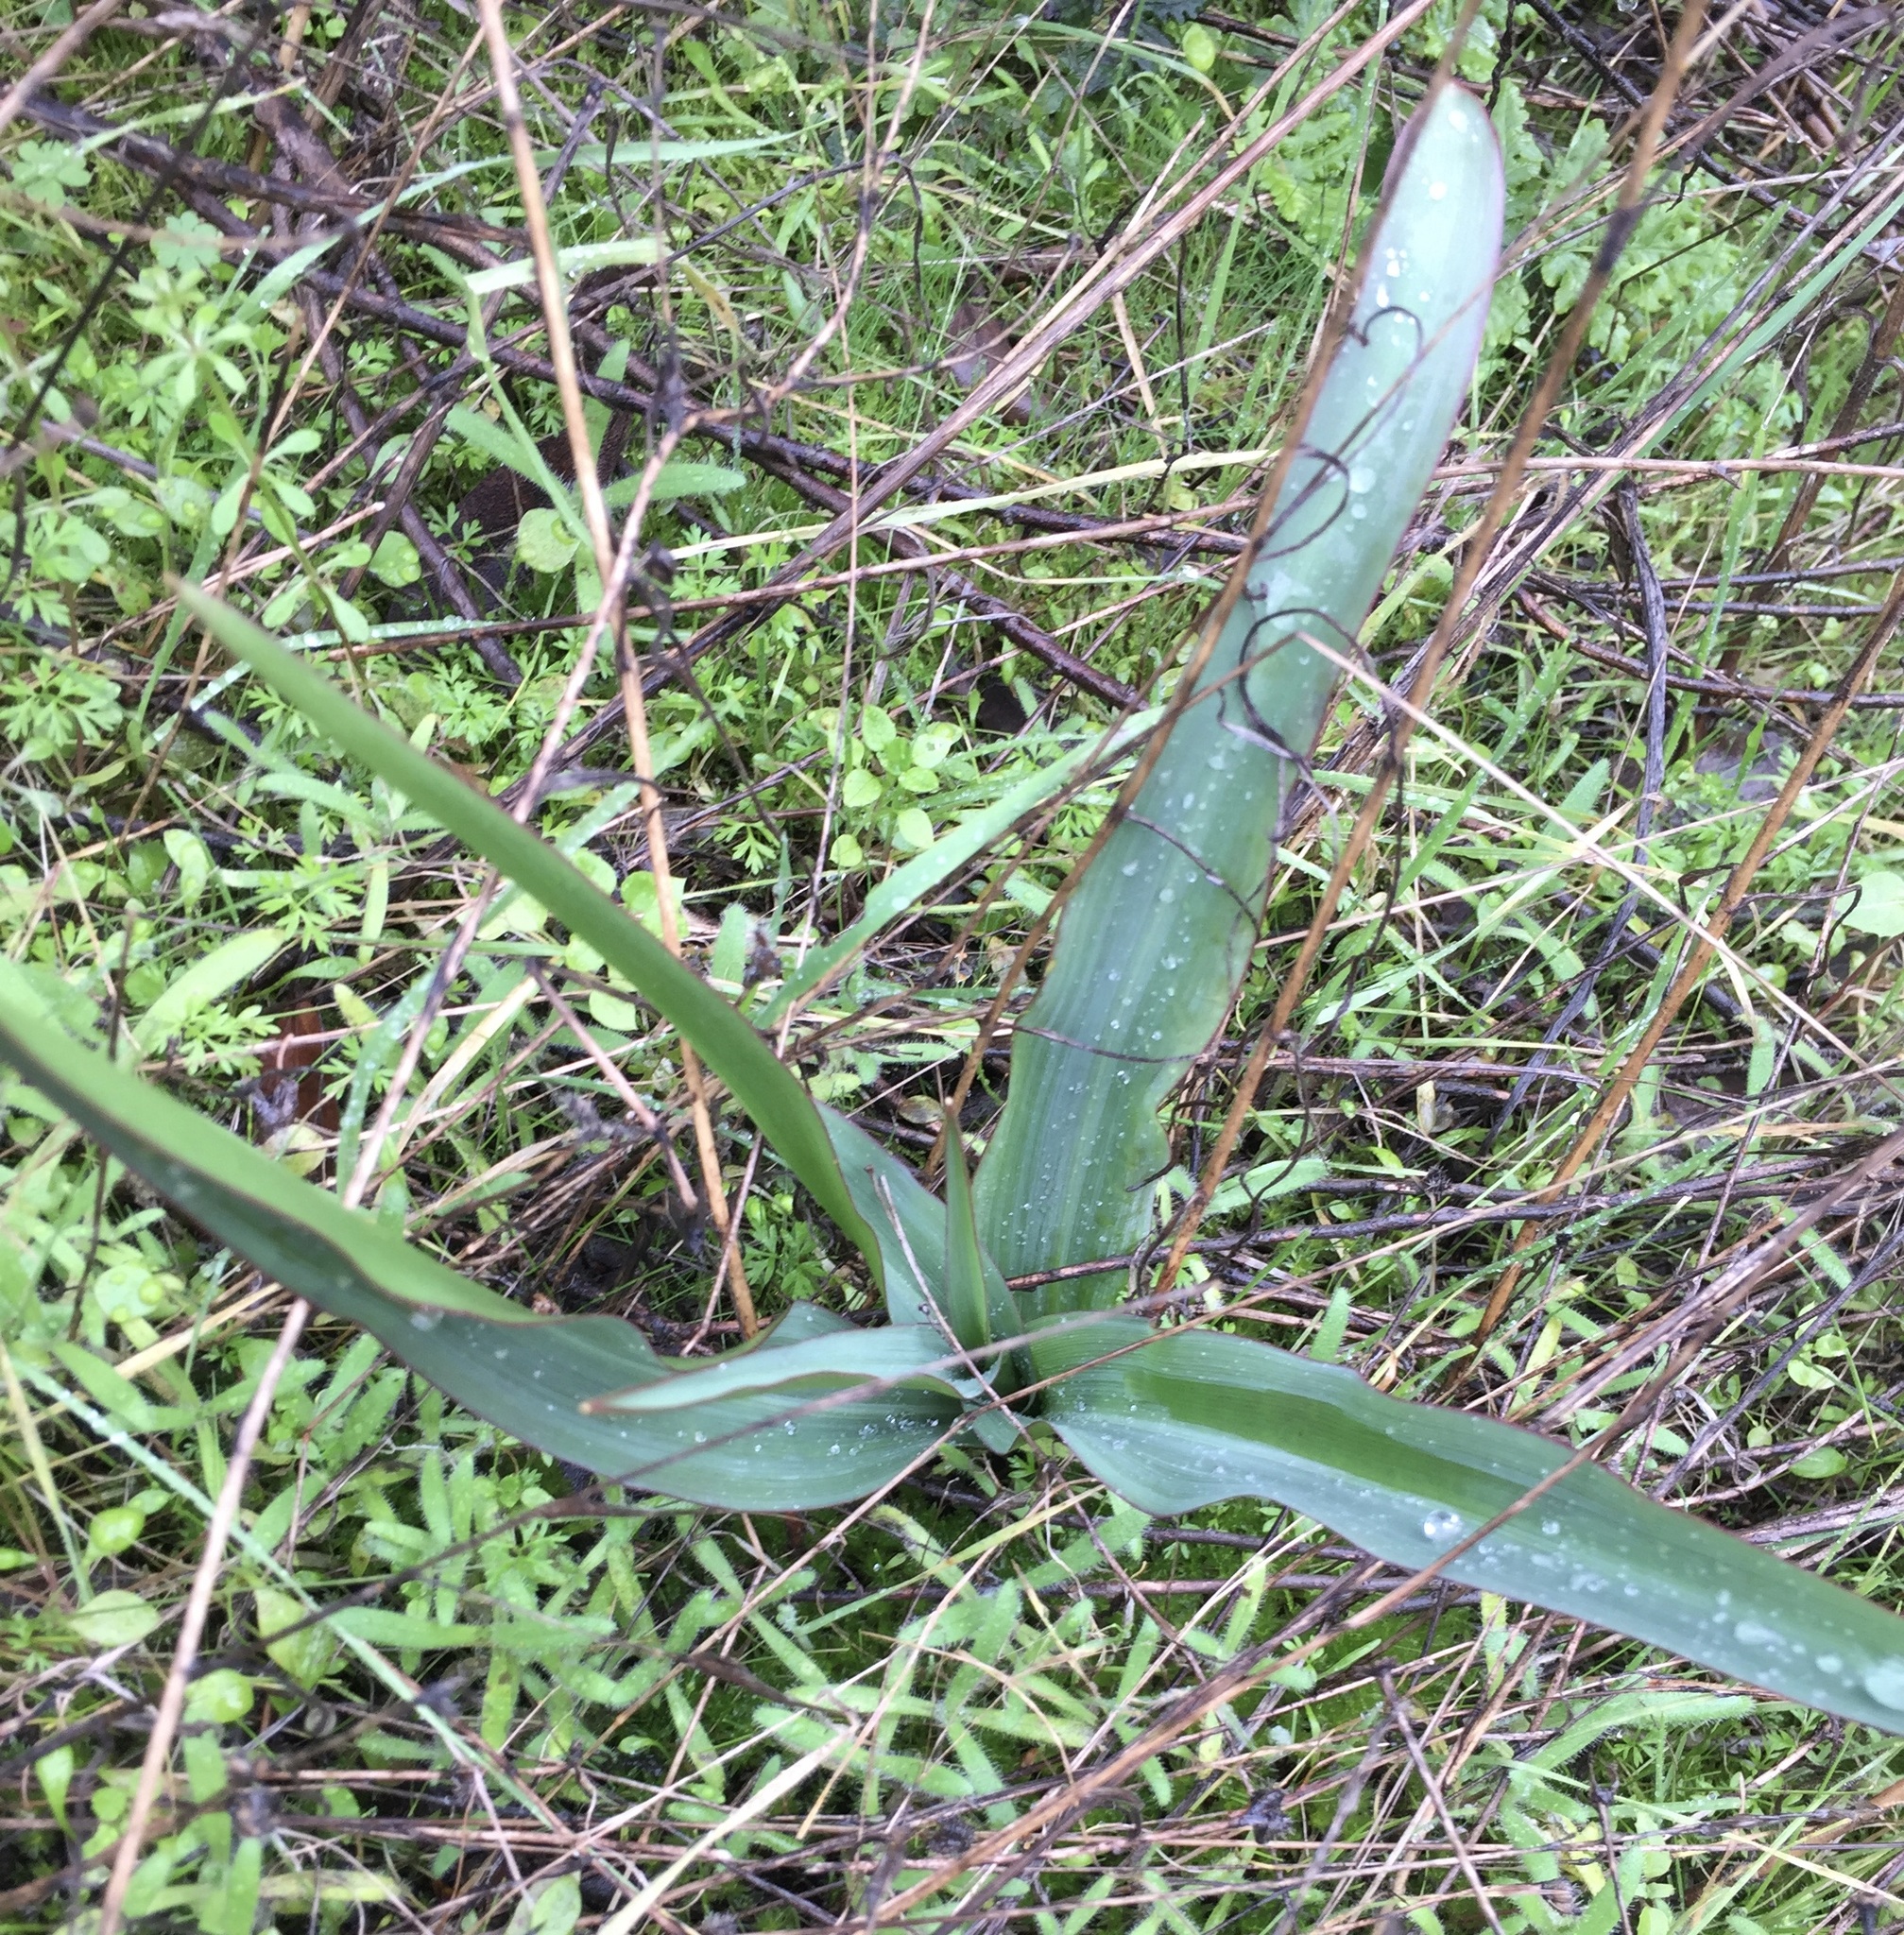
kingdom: Plantae
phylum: Tracheophyta
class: Liliopsida
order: Asparagales
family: Asparagaceae
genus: Chlorogalum
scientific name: Chlorogalum pomeridianum
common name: Amole
